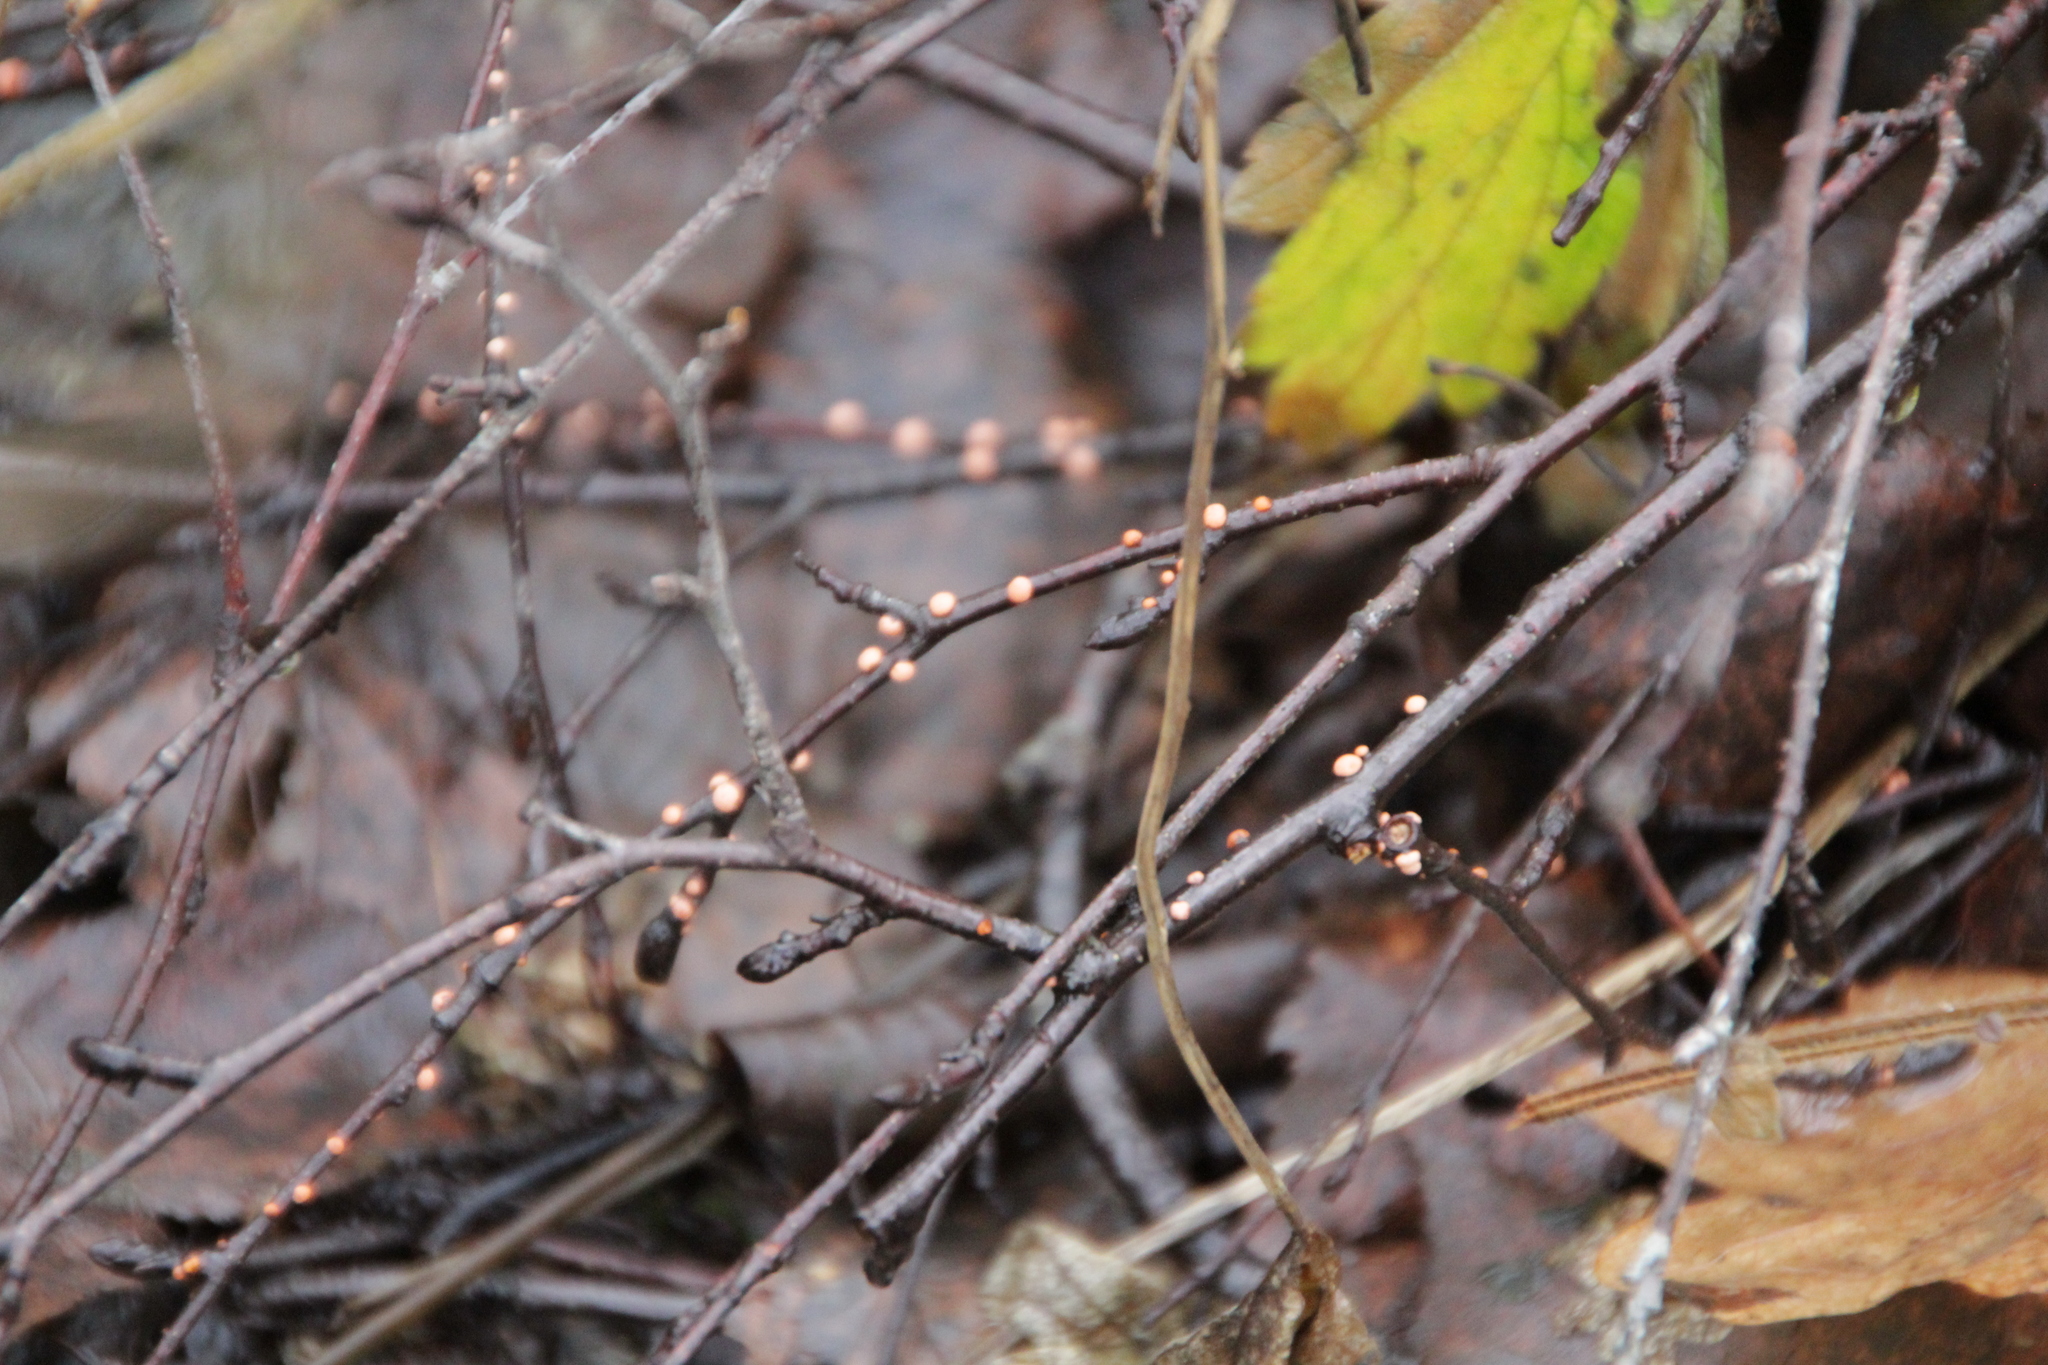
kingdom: Fungi
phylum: Ascomycota
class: Sordariomycetes
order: Hypocreales
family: Nectriaceae
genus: Nectria
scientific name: Nectria cinnabarina
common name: Coral spot
